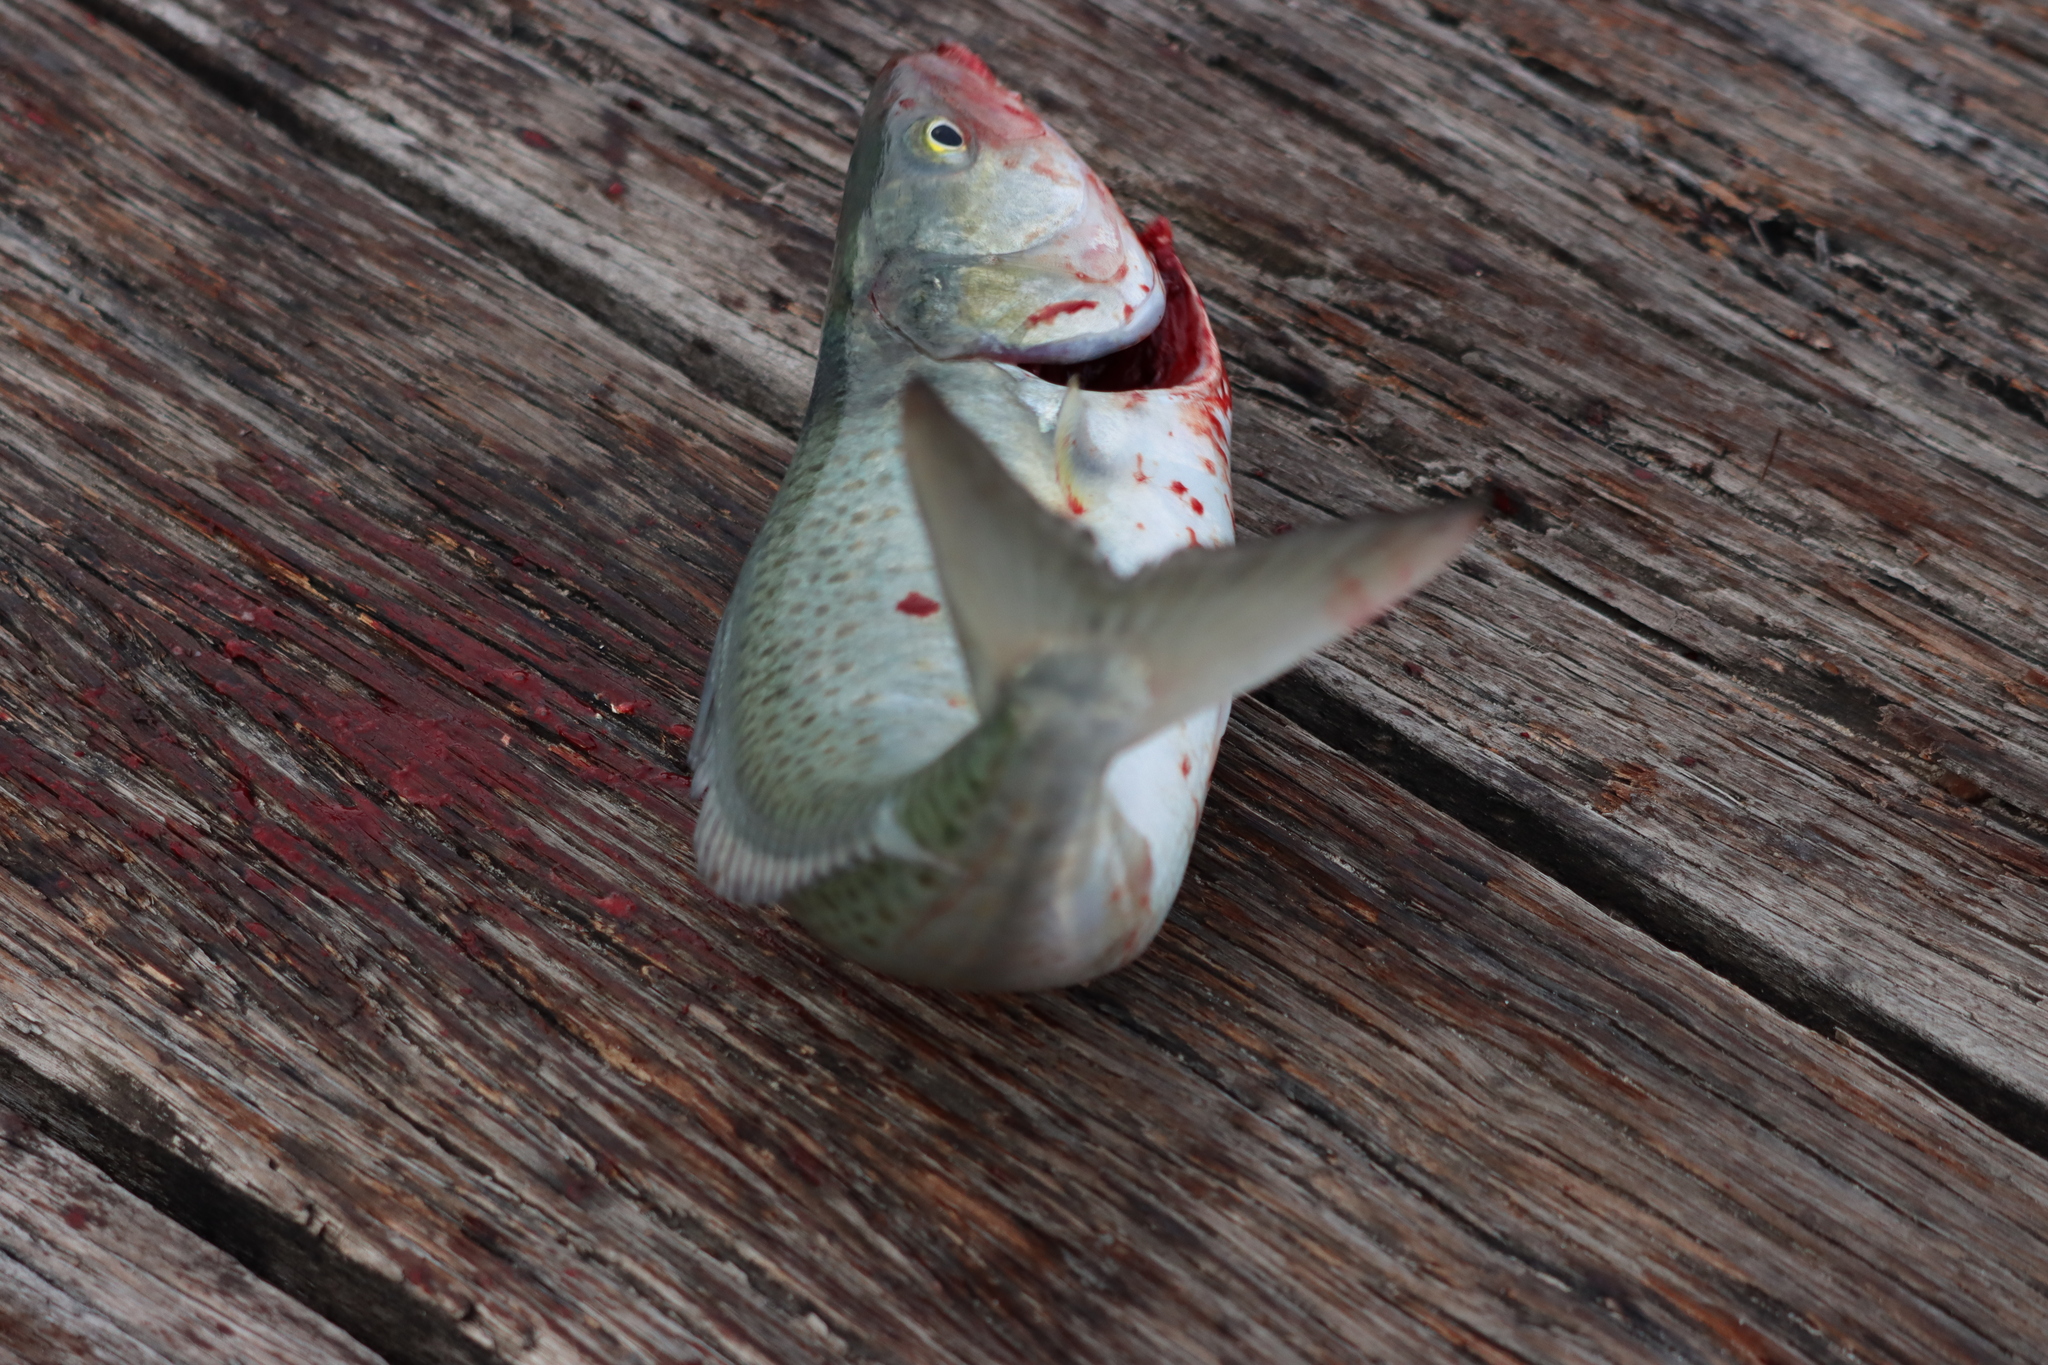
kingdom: Animalia
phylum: Chordata
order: Perciformes
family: Arripidae
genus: Arripis
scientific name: Arripis truttacea
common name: Australian salmon
